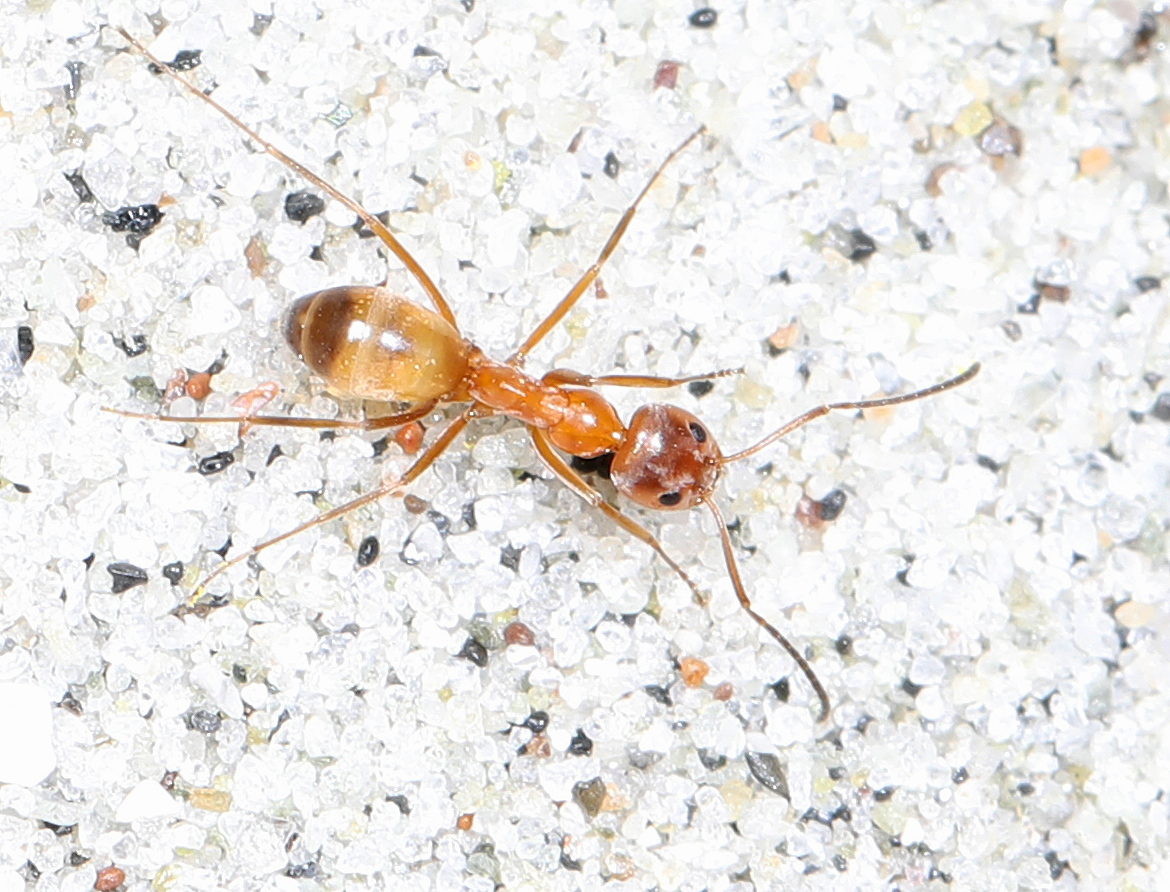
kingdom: Animalia
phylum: Arthropoda
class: Insecta
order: Hymenoptera
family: Formicidae
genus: Dorymyrmex
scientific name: Dorymyrmex bureni
